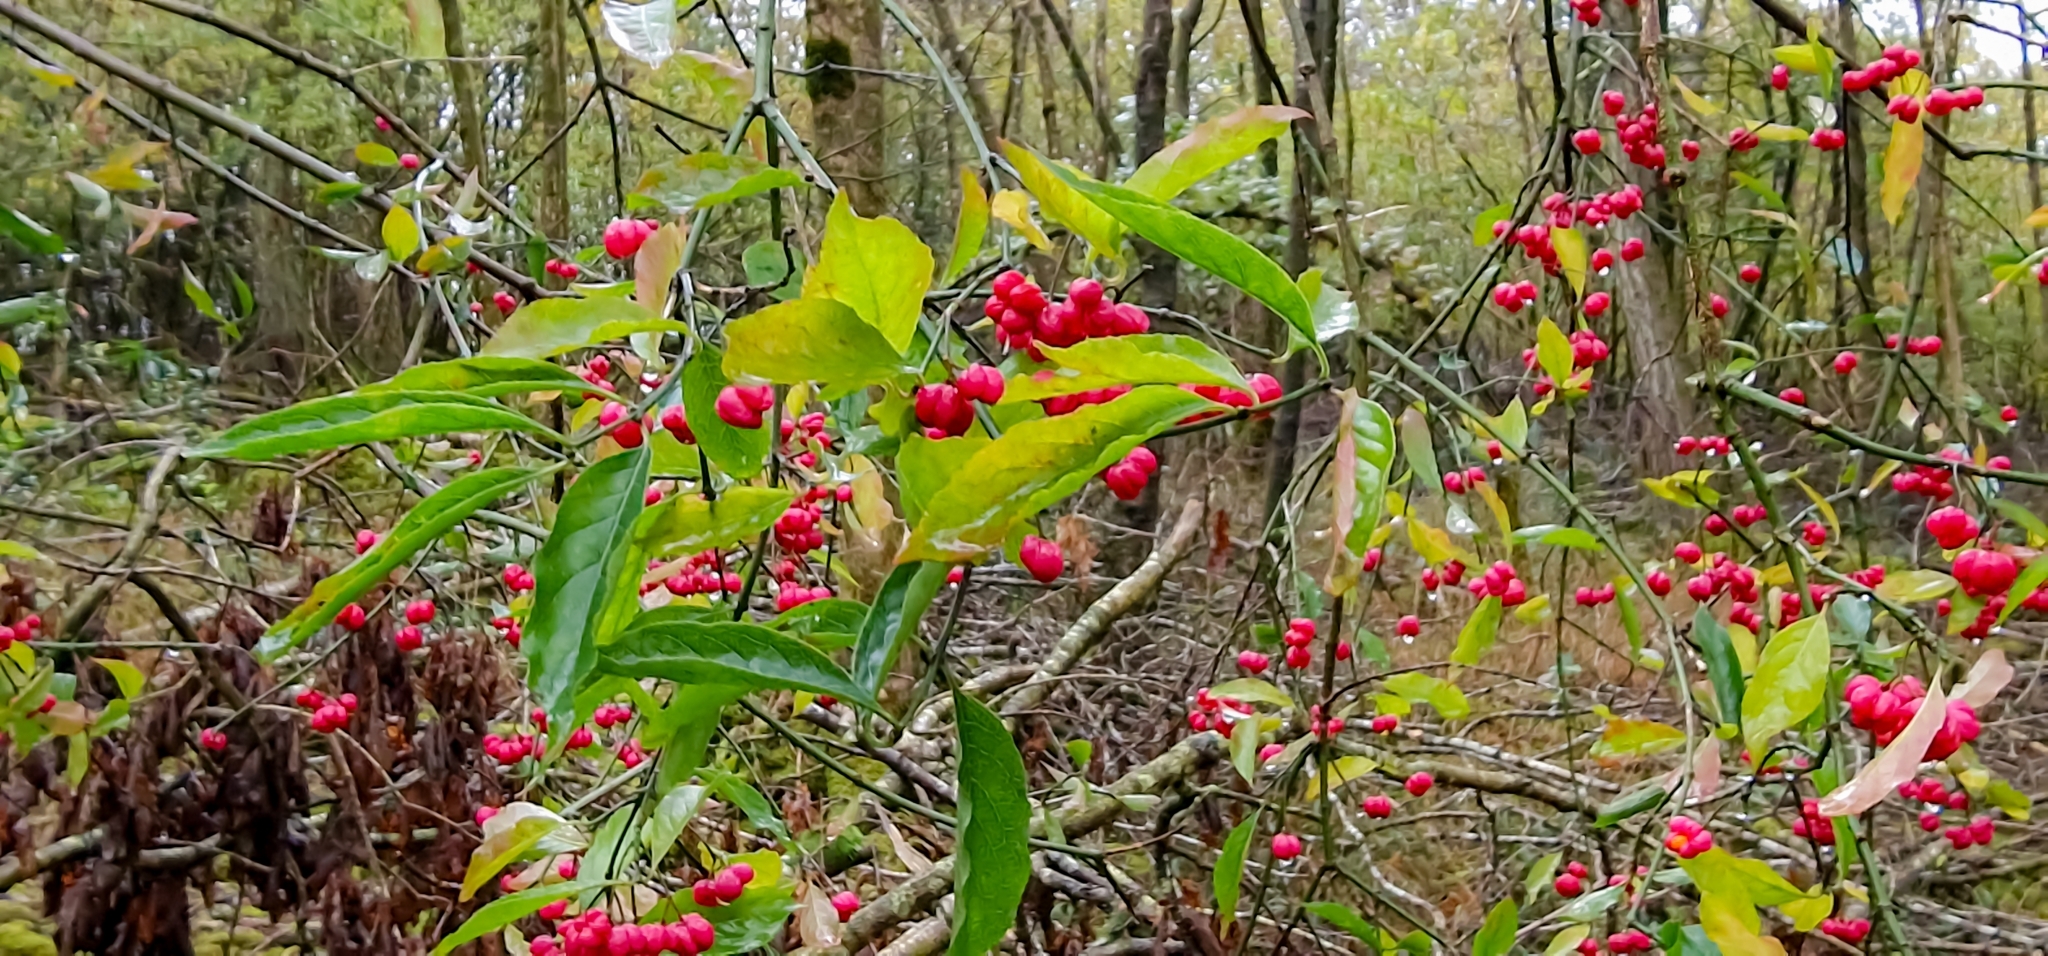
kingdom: Plantae
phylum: Tracheophyta
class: Magnoliopsida
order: Celastrales
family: Celastraceae
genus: Euonymus
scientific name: Euonymus europaeus
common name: Spindle
